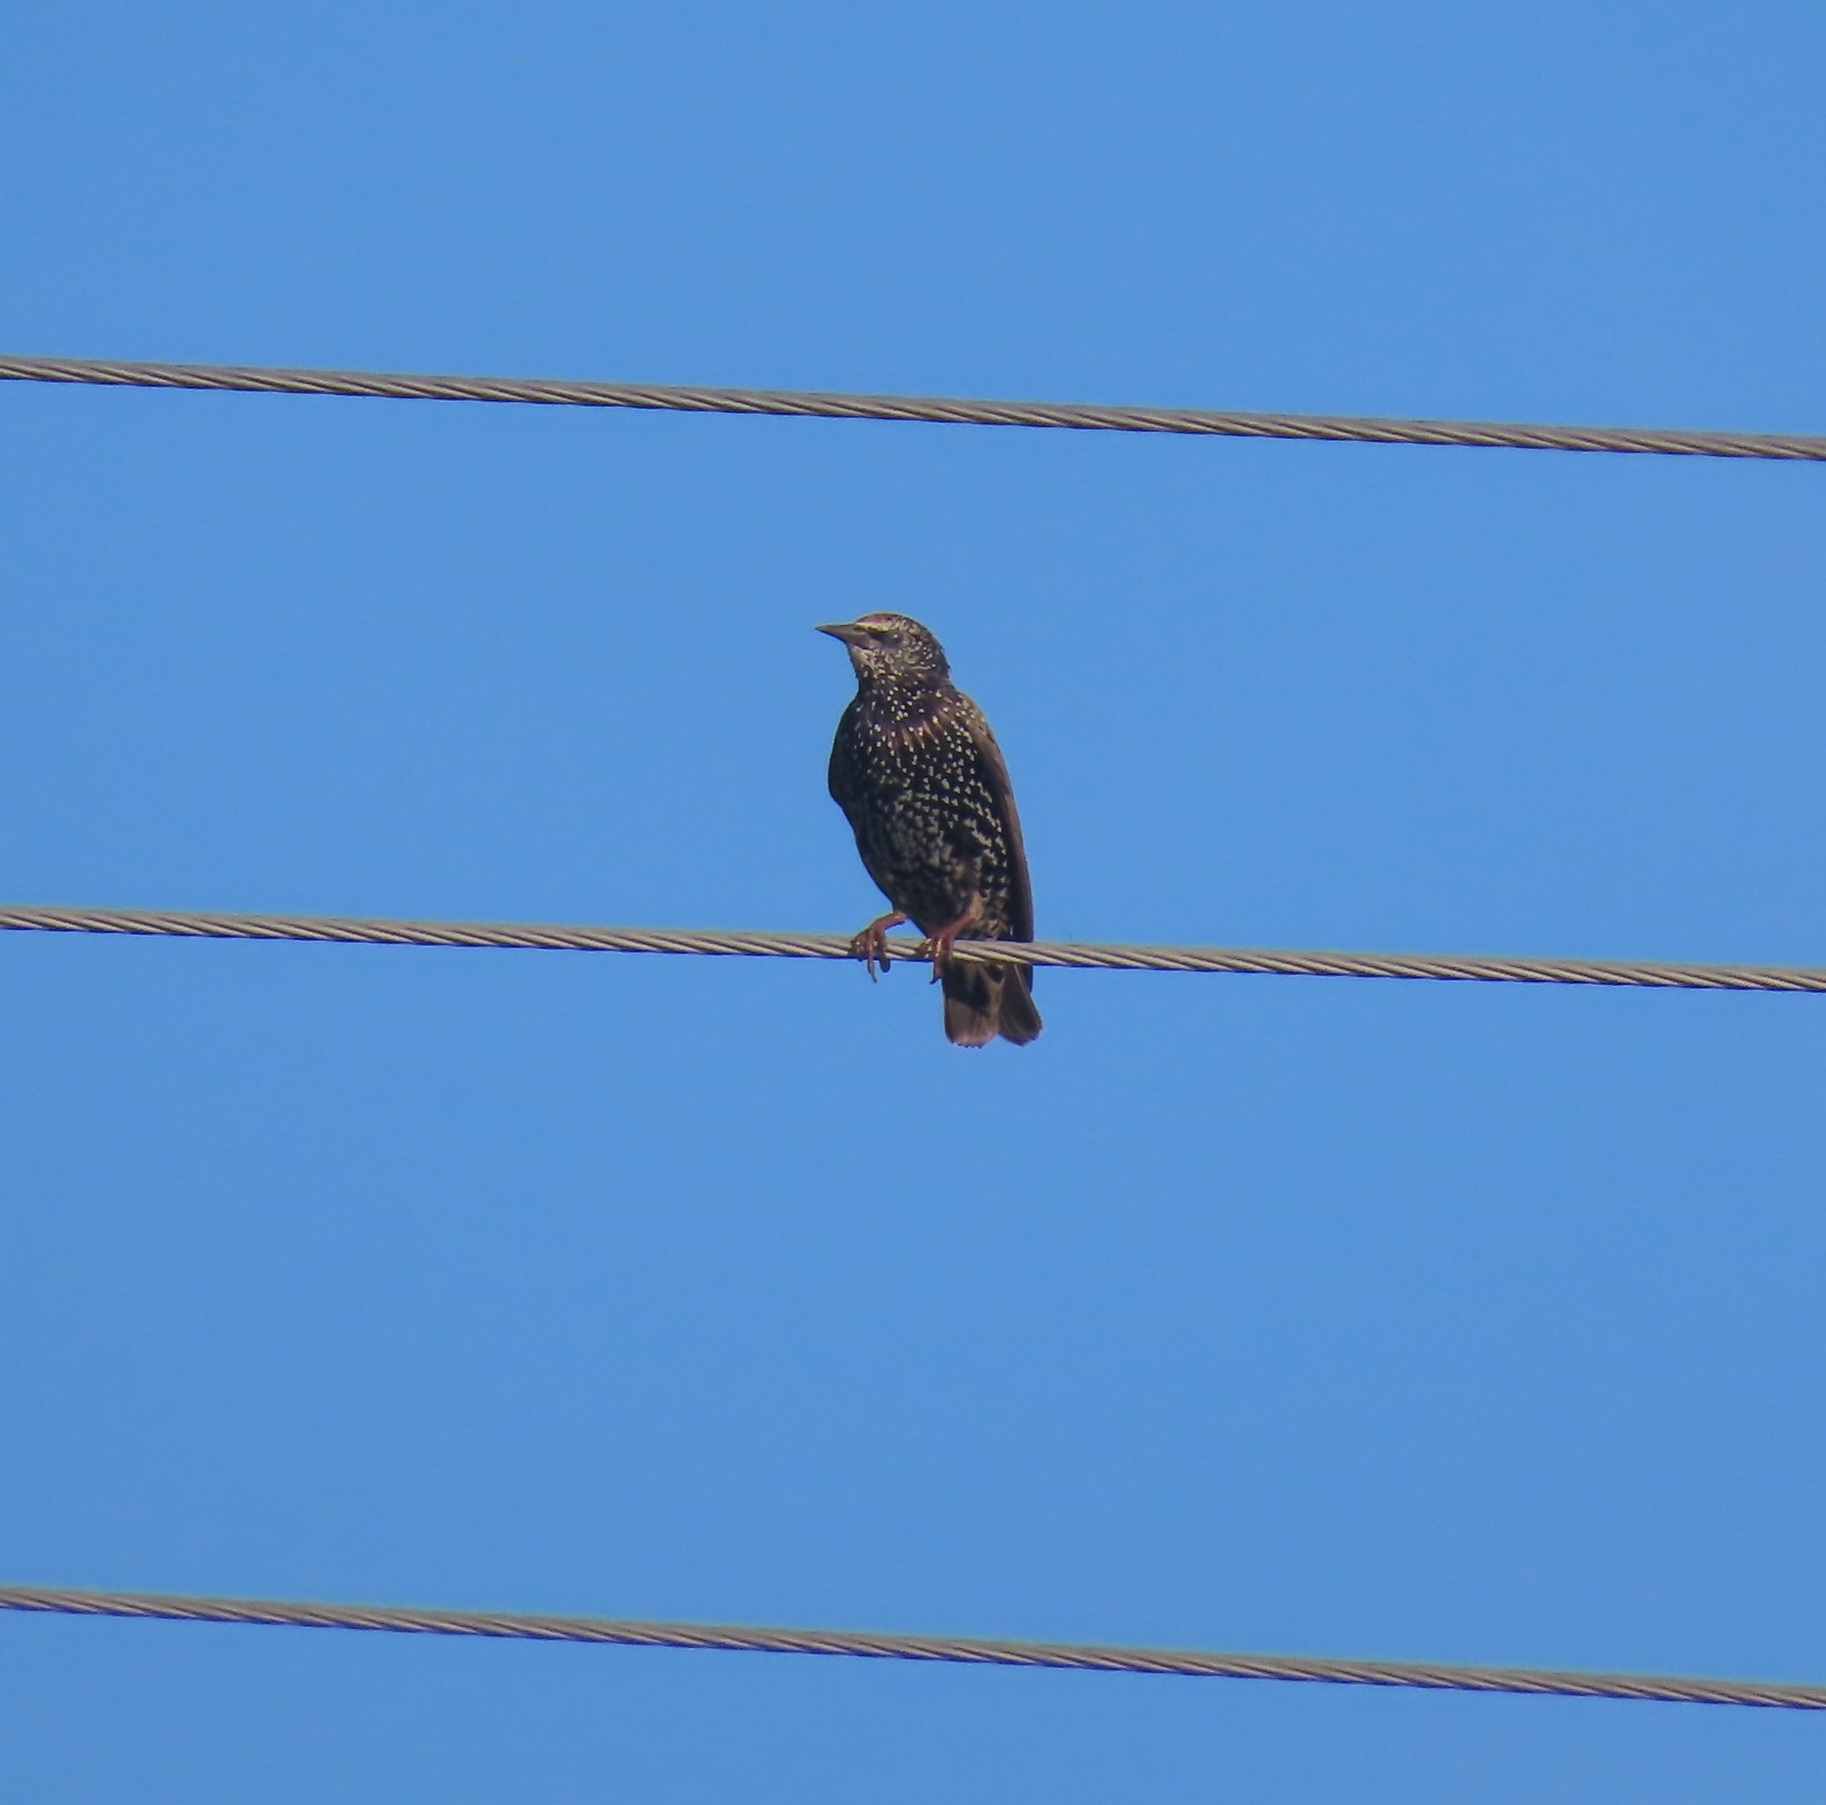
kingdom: Animalia
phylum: Chordata
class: Aves
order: Passeriformes
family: Sturnidae
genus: Sturnus
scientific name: Sturnus vulgaris
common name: Common starling
